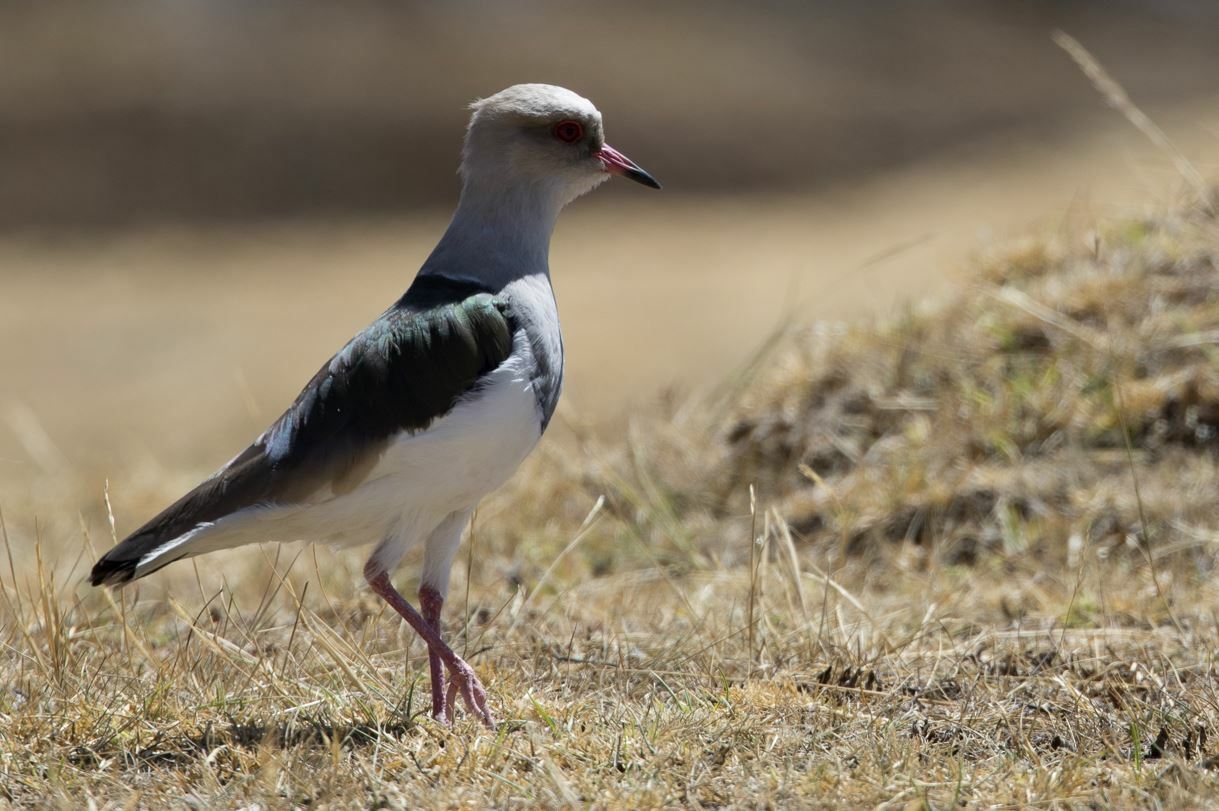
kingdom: Animalia
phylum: Chordata
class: Aves
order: Charadriiformes
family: Charadriidae
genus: Vanellus
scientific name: Vanellus resplendens
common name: Andean lapwing
